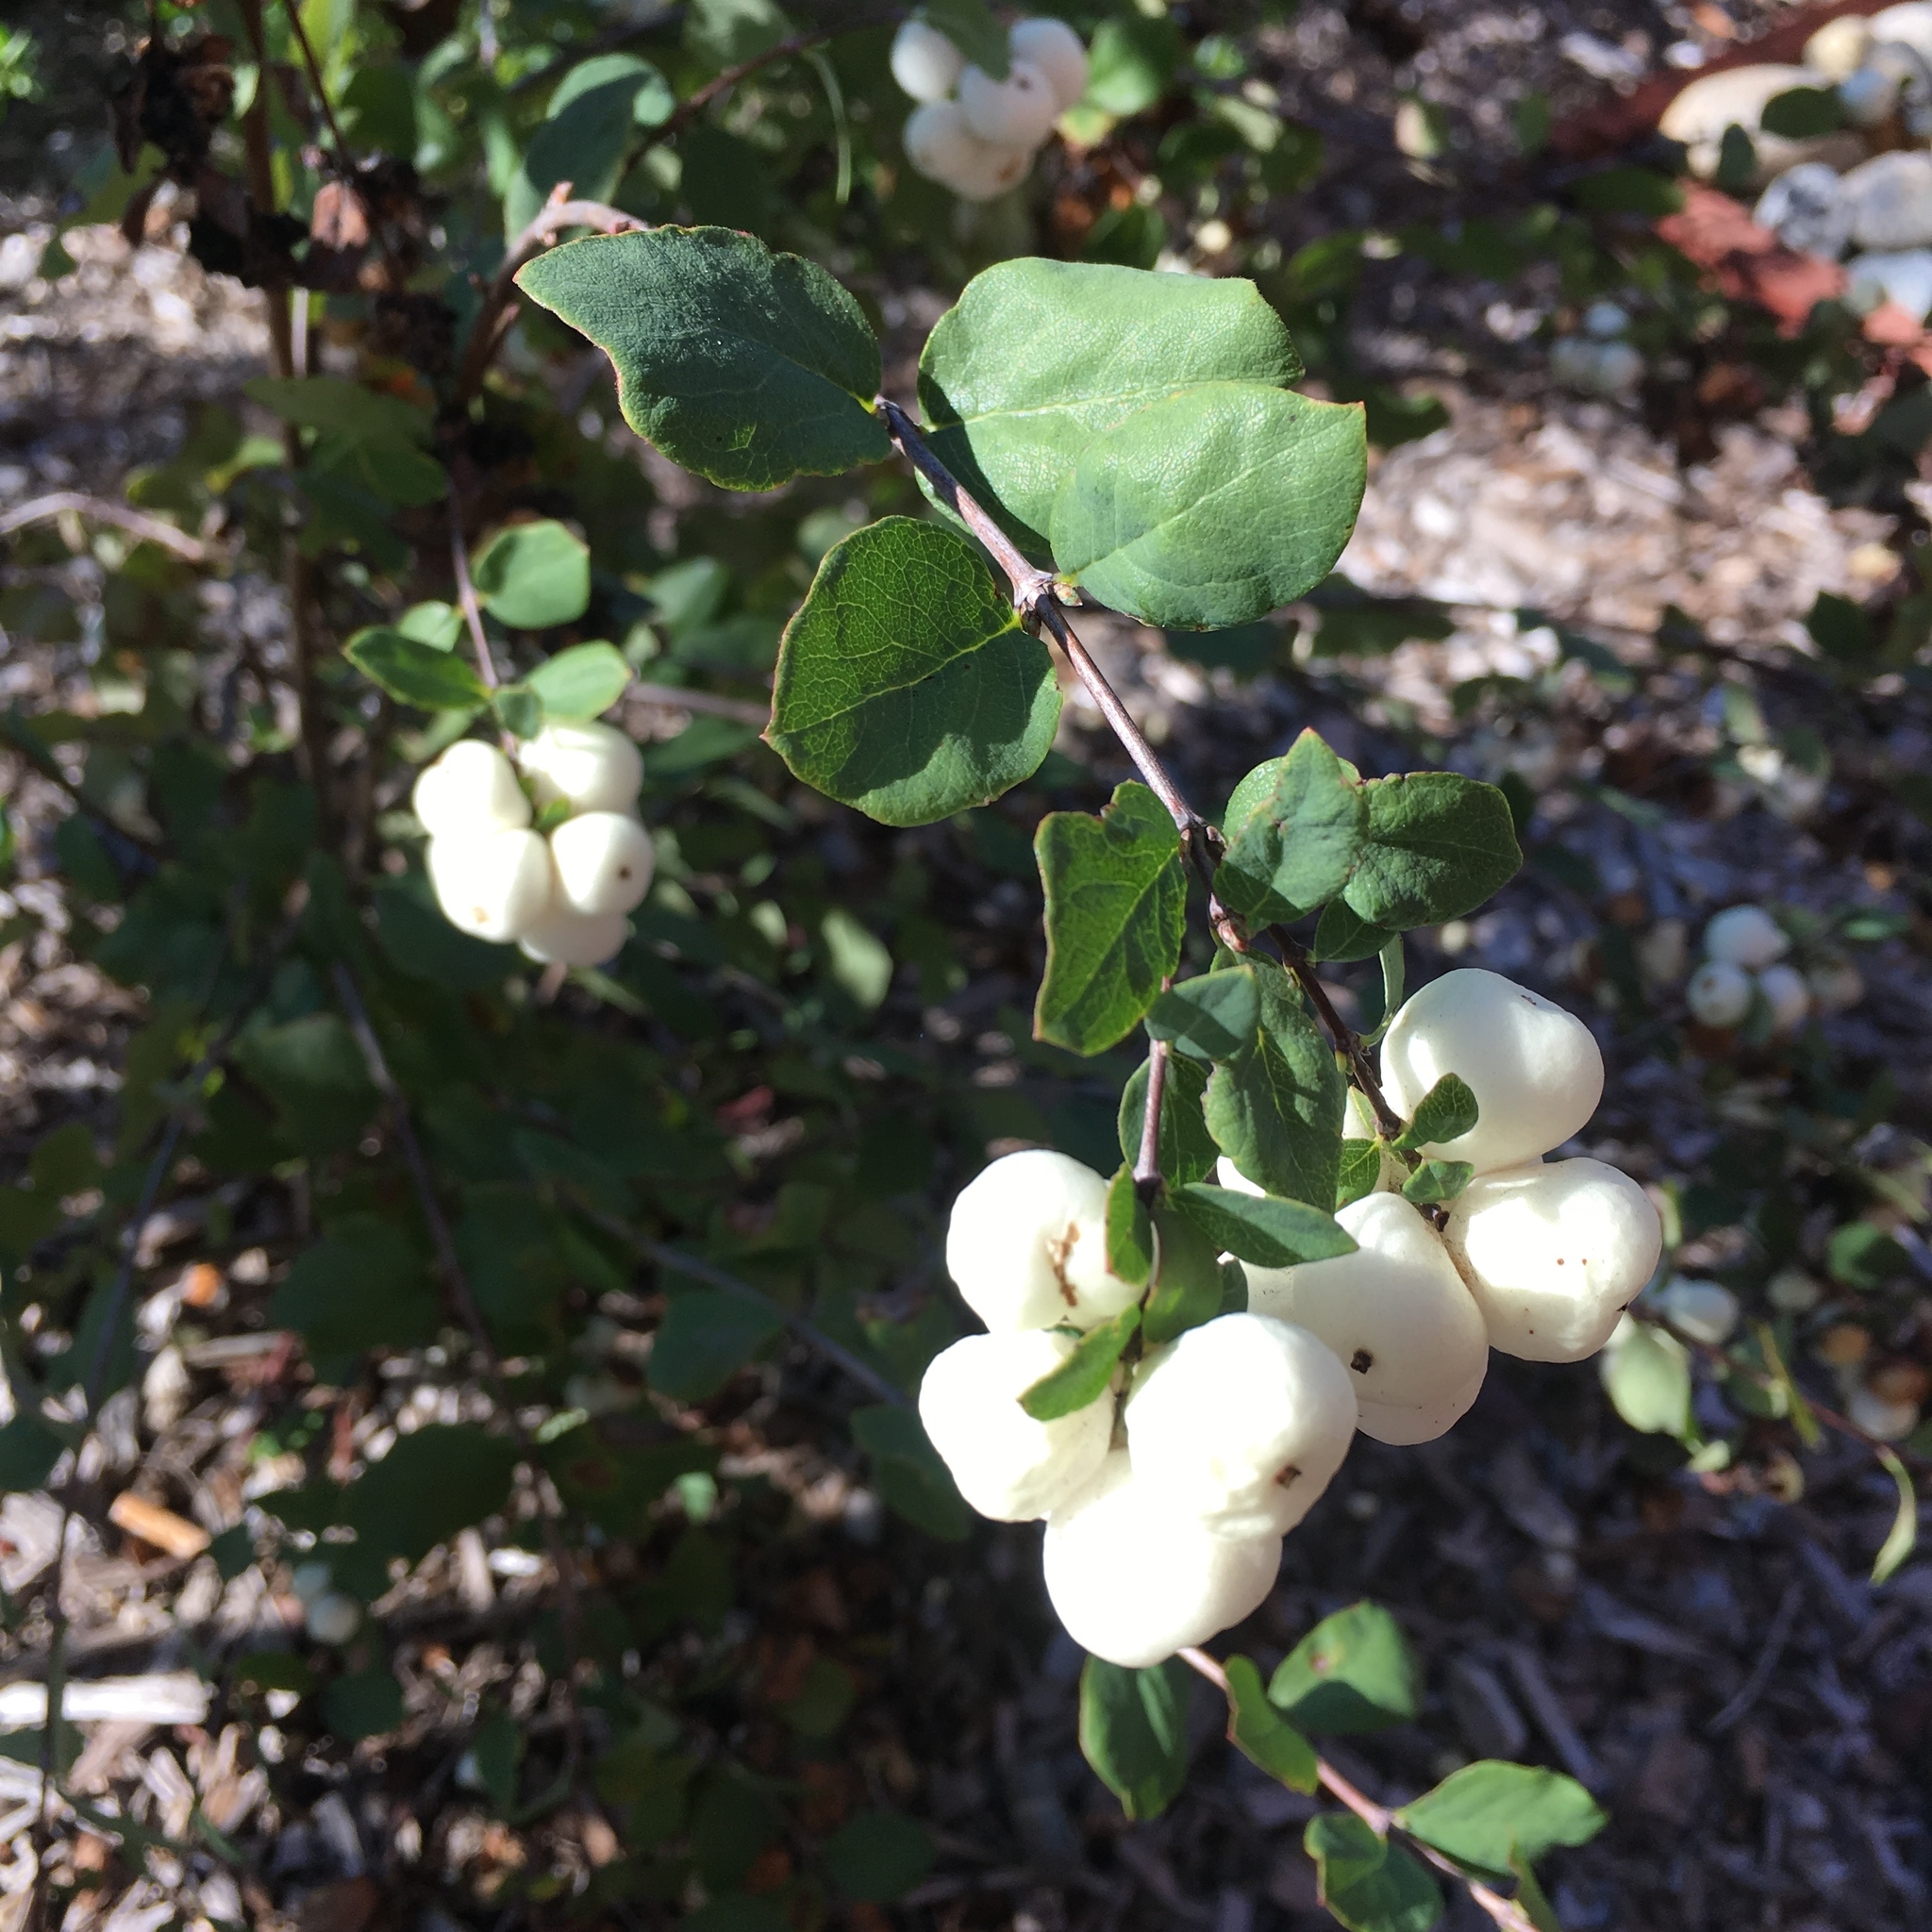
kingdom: Plantae
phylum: Tracheophyta
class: Magnoliopsida
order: Dipsacales
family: Caprifoliaceae
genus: Symphoricarpos
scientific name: Symphoricarpos albus
